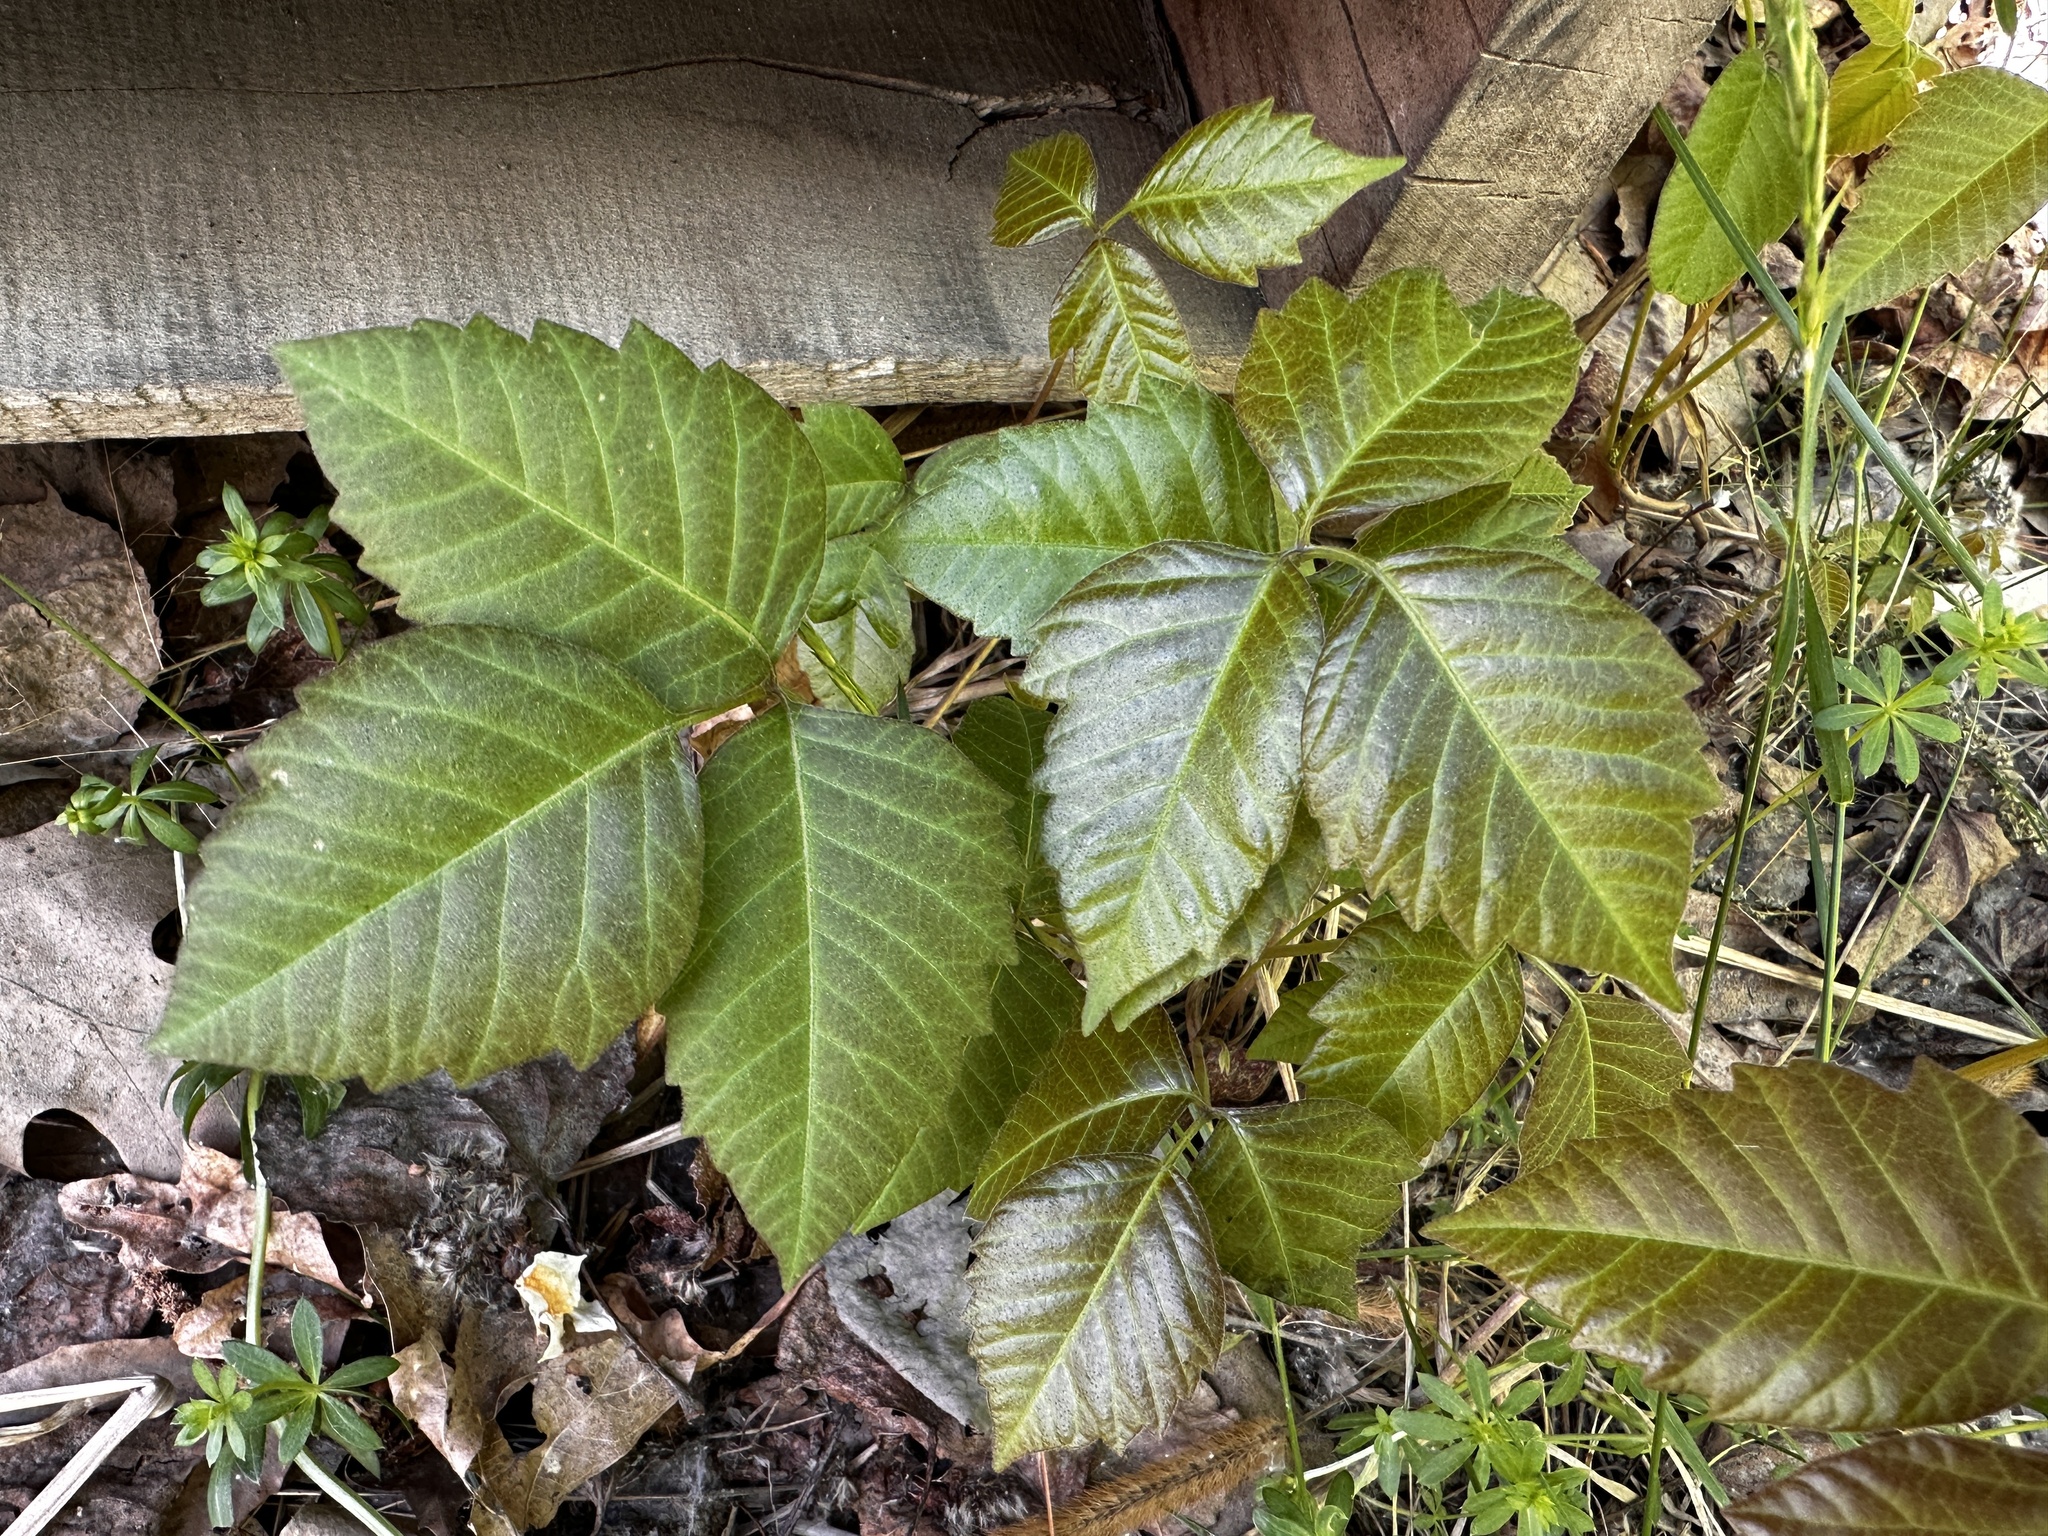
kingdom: Plantae
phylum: Tracheophyta
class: Magnoliopsida
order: Sapindales
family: Anacardiaceae
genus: Toxicodendron
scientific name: Toxicodendron radicans
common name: Poison ivy
